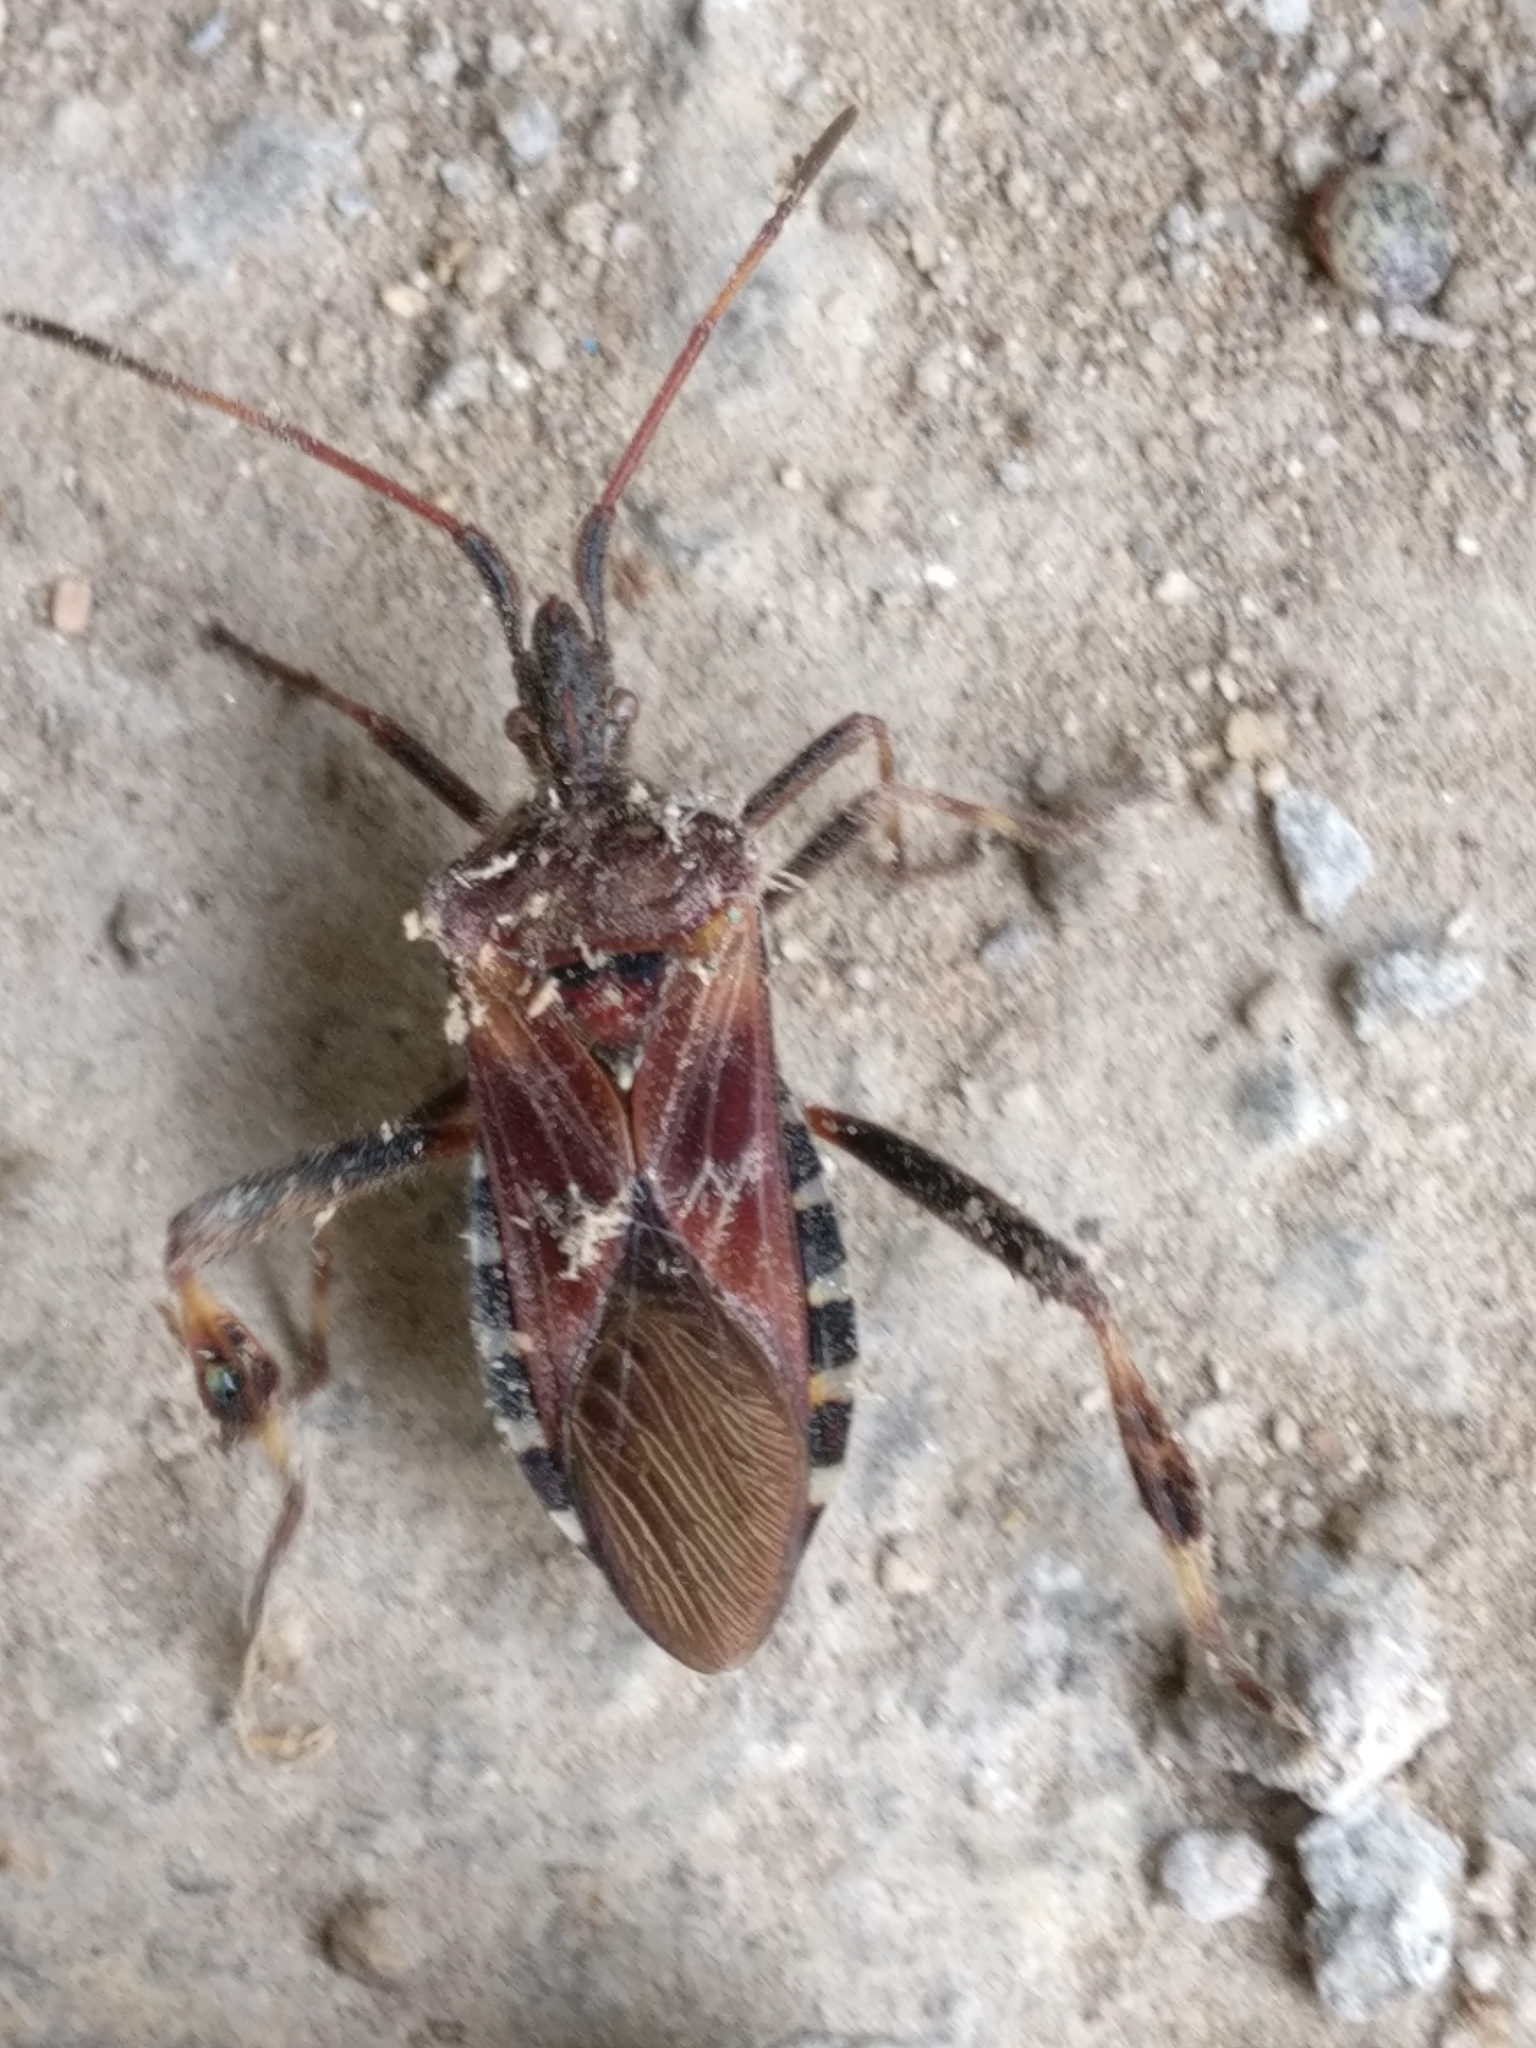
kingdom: Animalia
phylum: Arthropoda
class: Insecta
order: Hemiptera
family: Coreidae
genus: Leptoglossus
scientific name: Leptoglossus occidentalis
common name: Western conifer-seed bug
